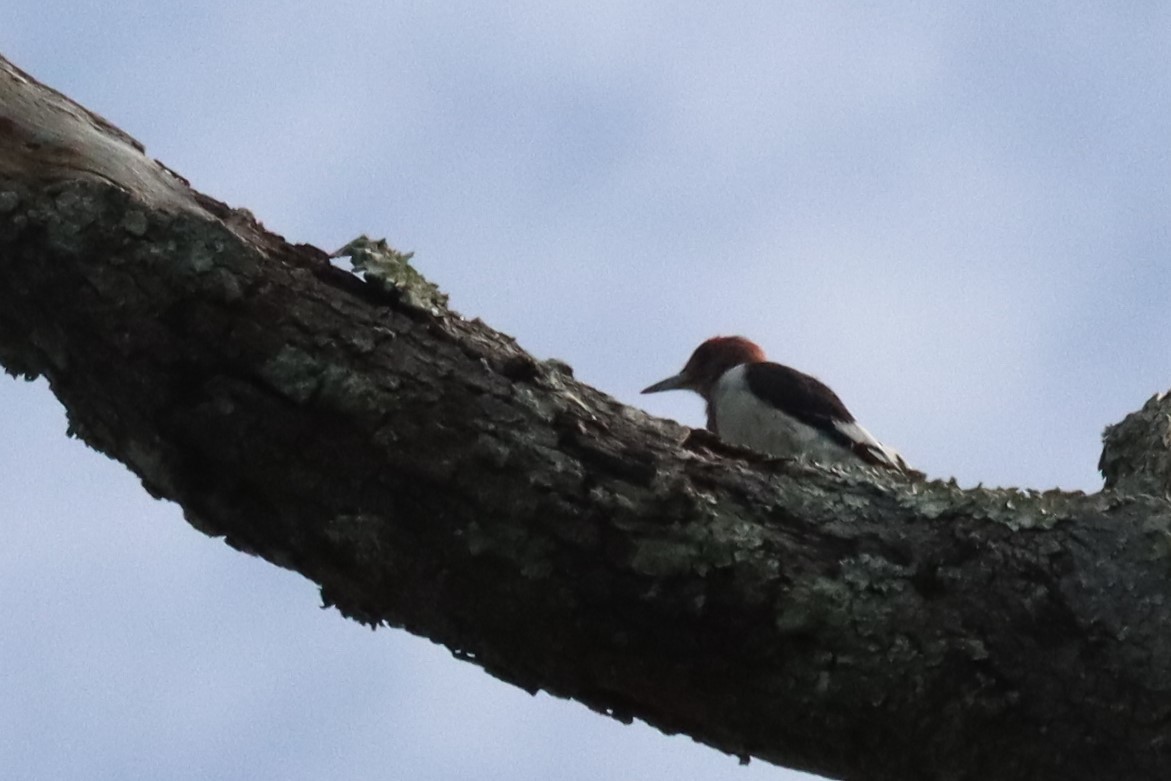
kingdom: Animalia
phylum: Chordata
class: Aves
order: Piciformes
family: Picidae
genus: Melanerpes
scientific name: Melanerpes erythrocephalus
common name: Red-headed woodpecker
